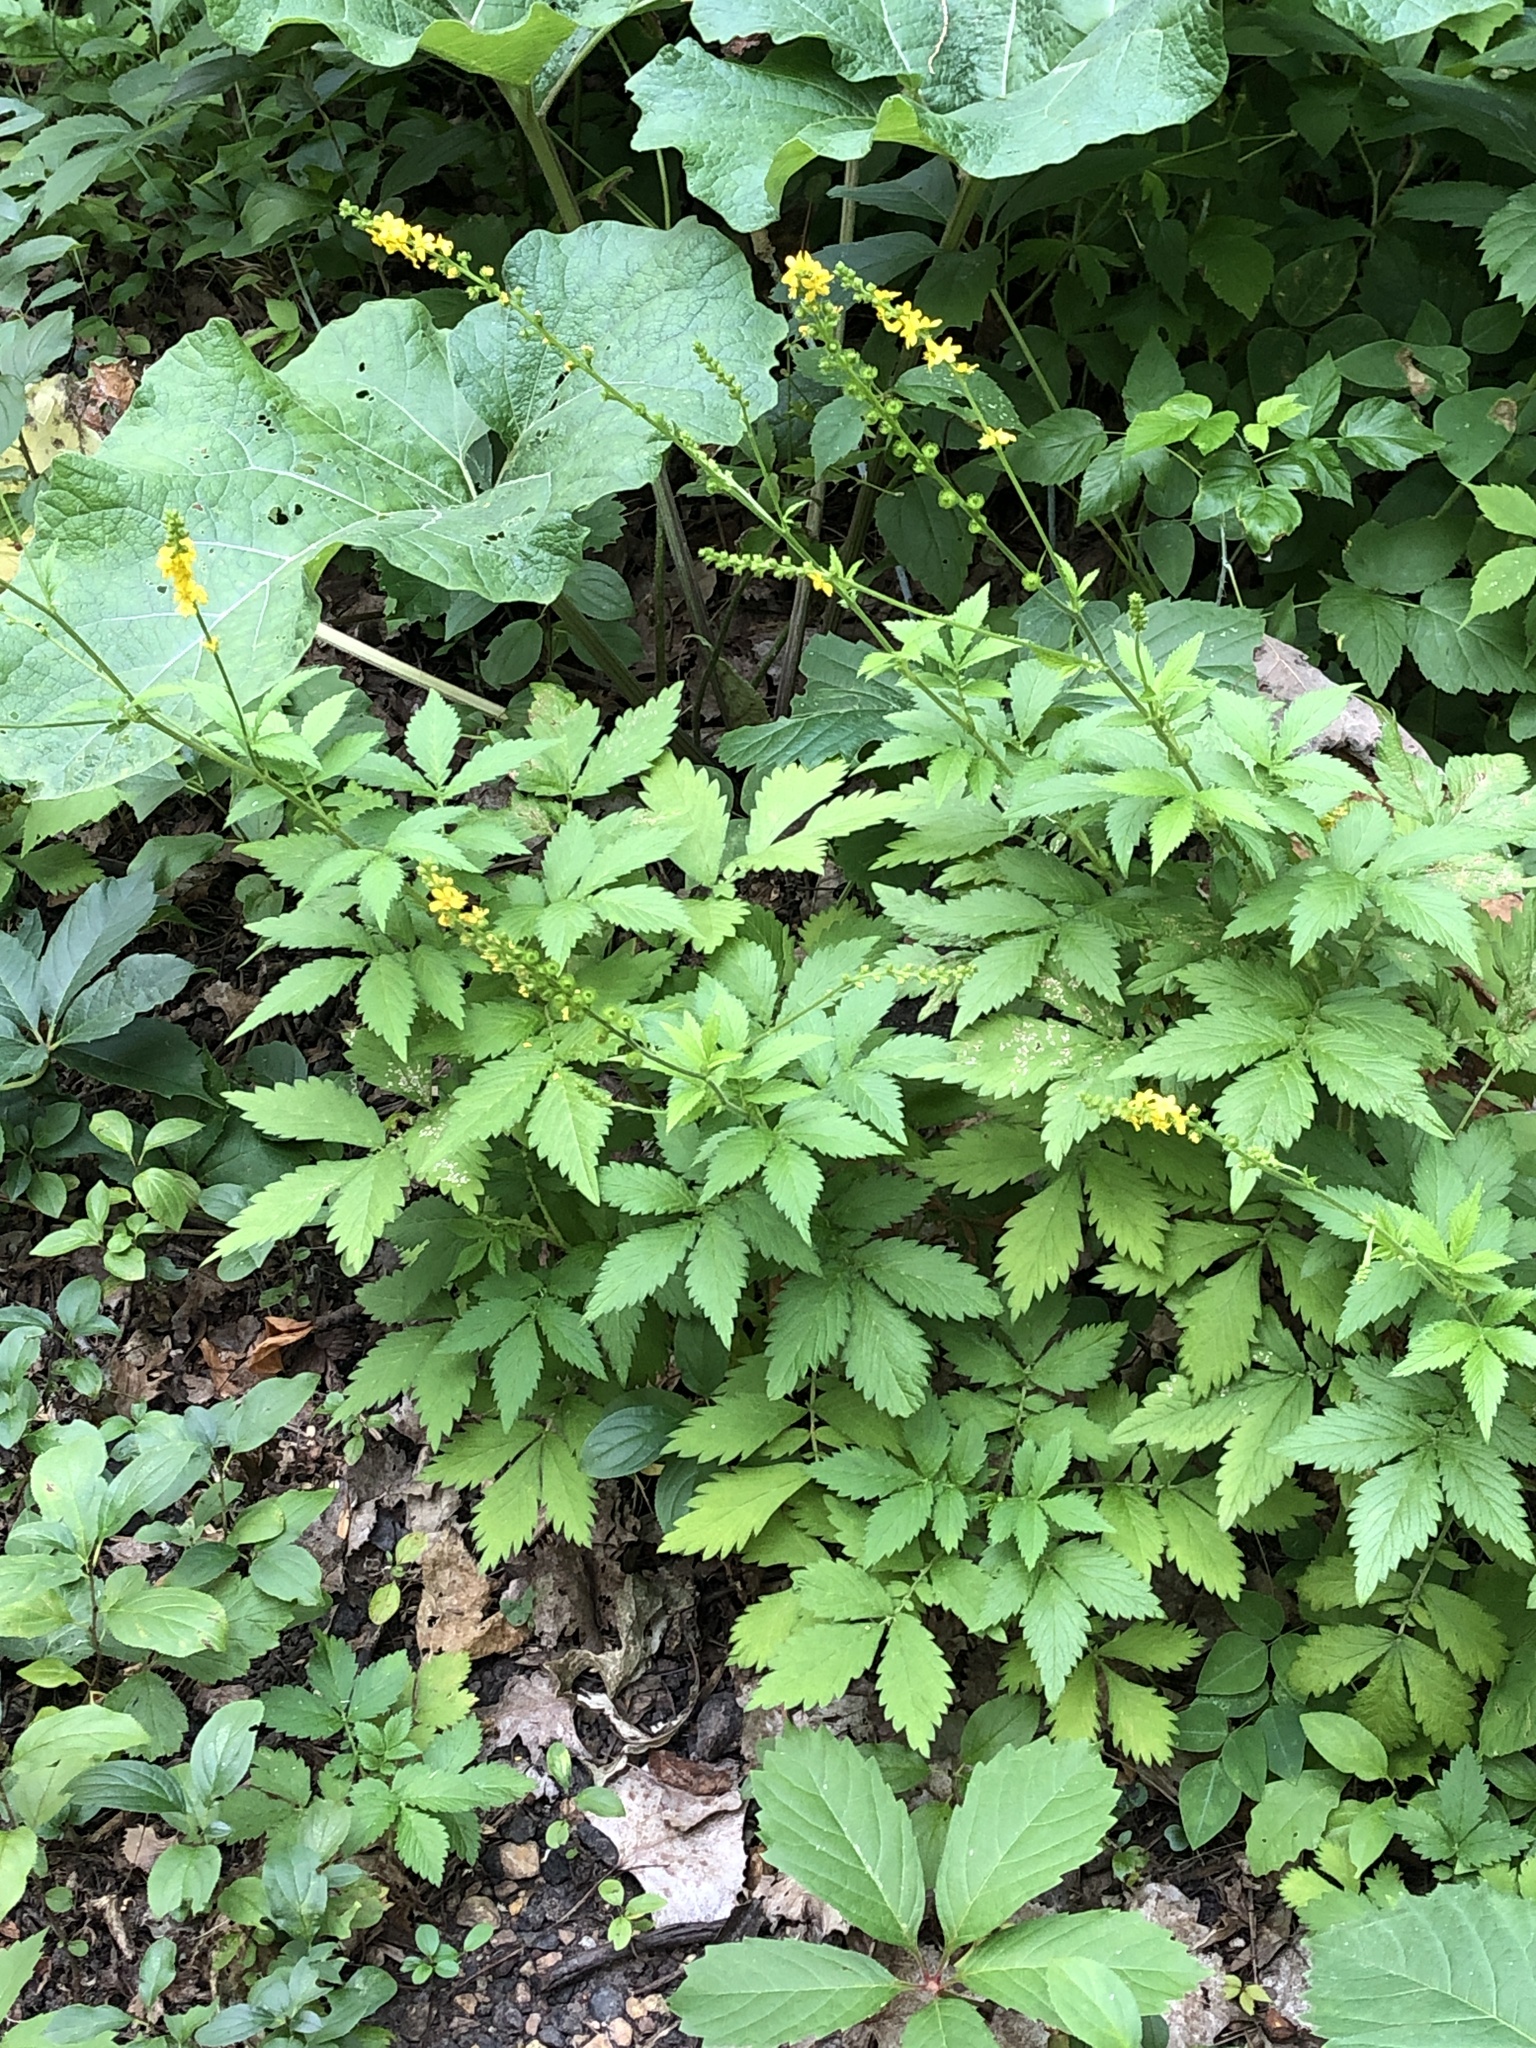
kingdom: Plantae
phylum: Tracheophyta
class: Magnoliopsida
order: Rosales
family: Rosaceae
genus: Agrimonia
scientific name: Agrimonia striata
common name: Britton's agrimony
